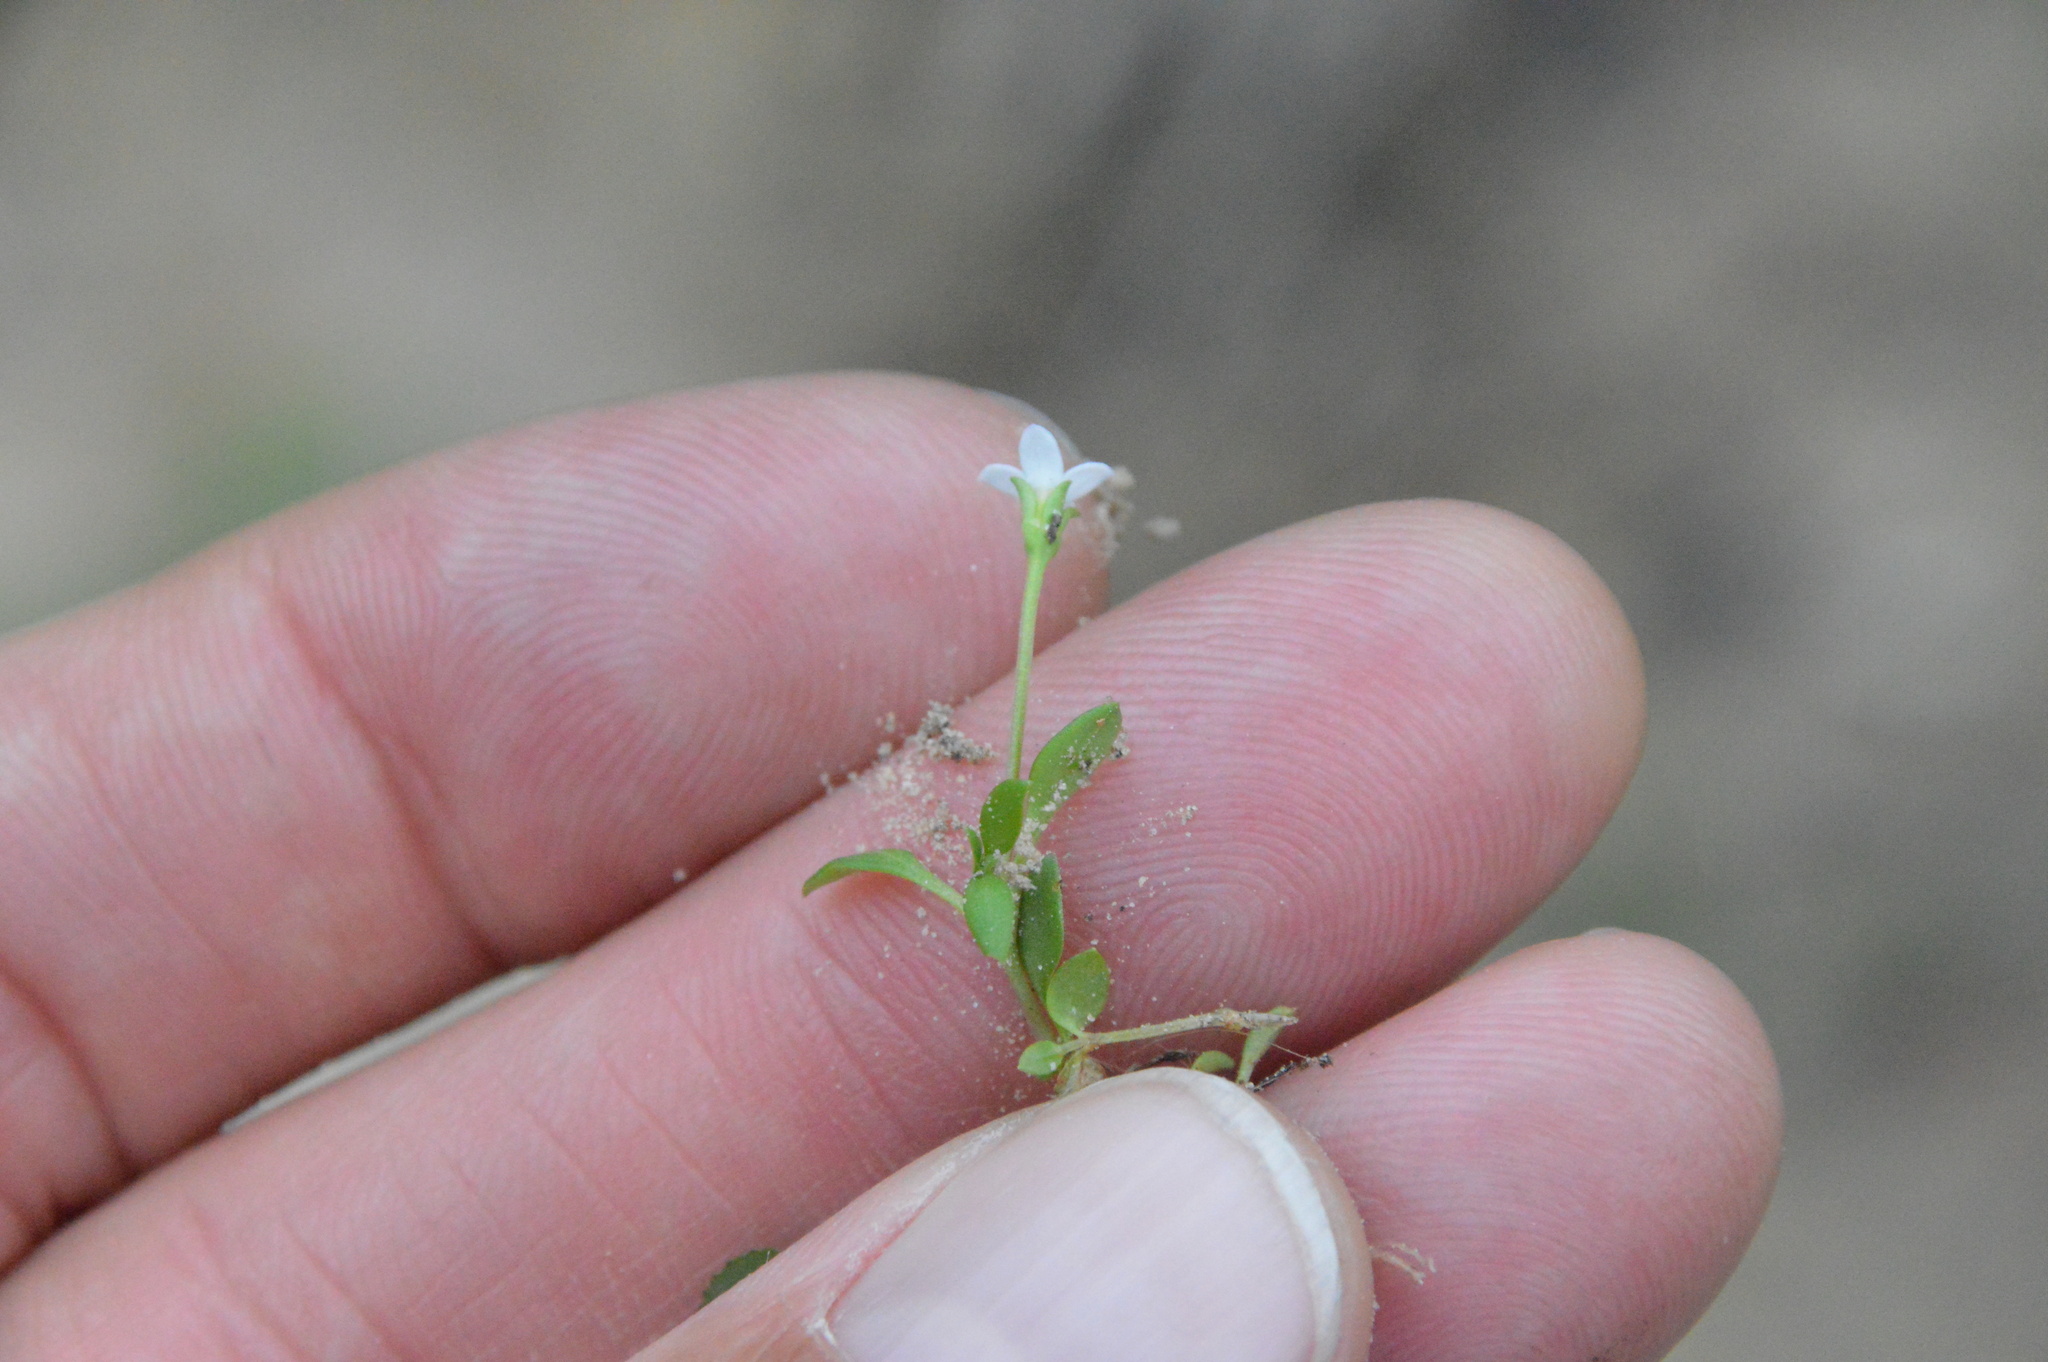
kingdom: Plantae
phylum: Tracheophyta
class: Magnoliopsida
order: Gentianales
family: Rubiaceae
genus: Houstonia
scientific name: Houstonia micrantha
